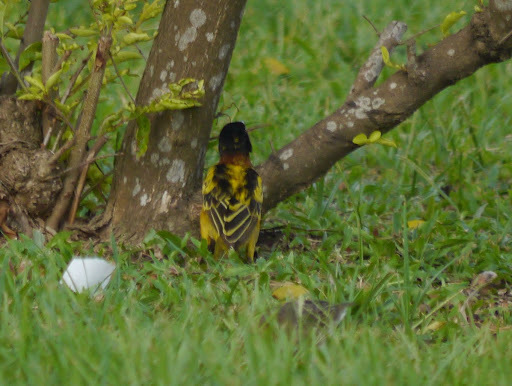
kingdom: Animalia
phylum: Chordata
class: Aves
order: Passeriformes
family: Ploceidae
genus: Ploceus
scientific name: Ploceus cucullatus
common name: Village weaver
